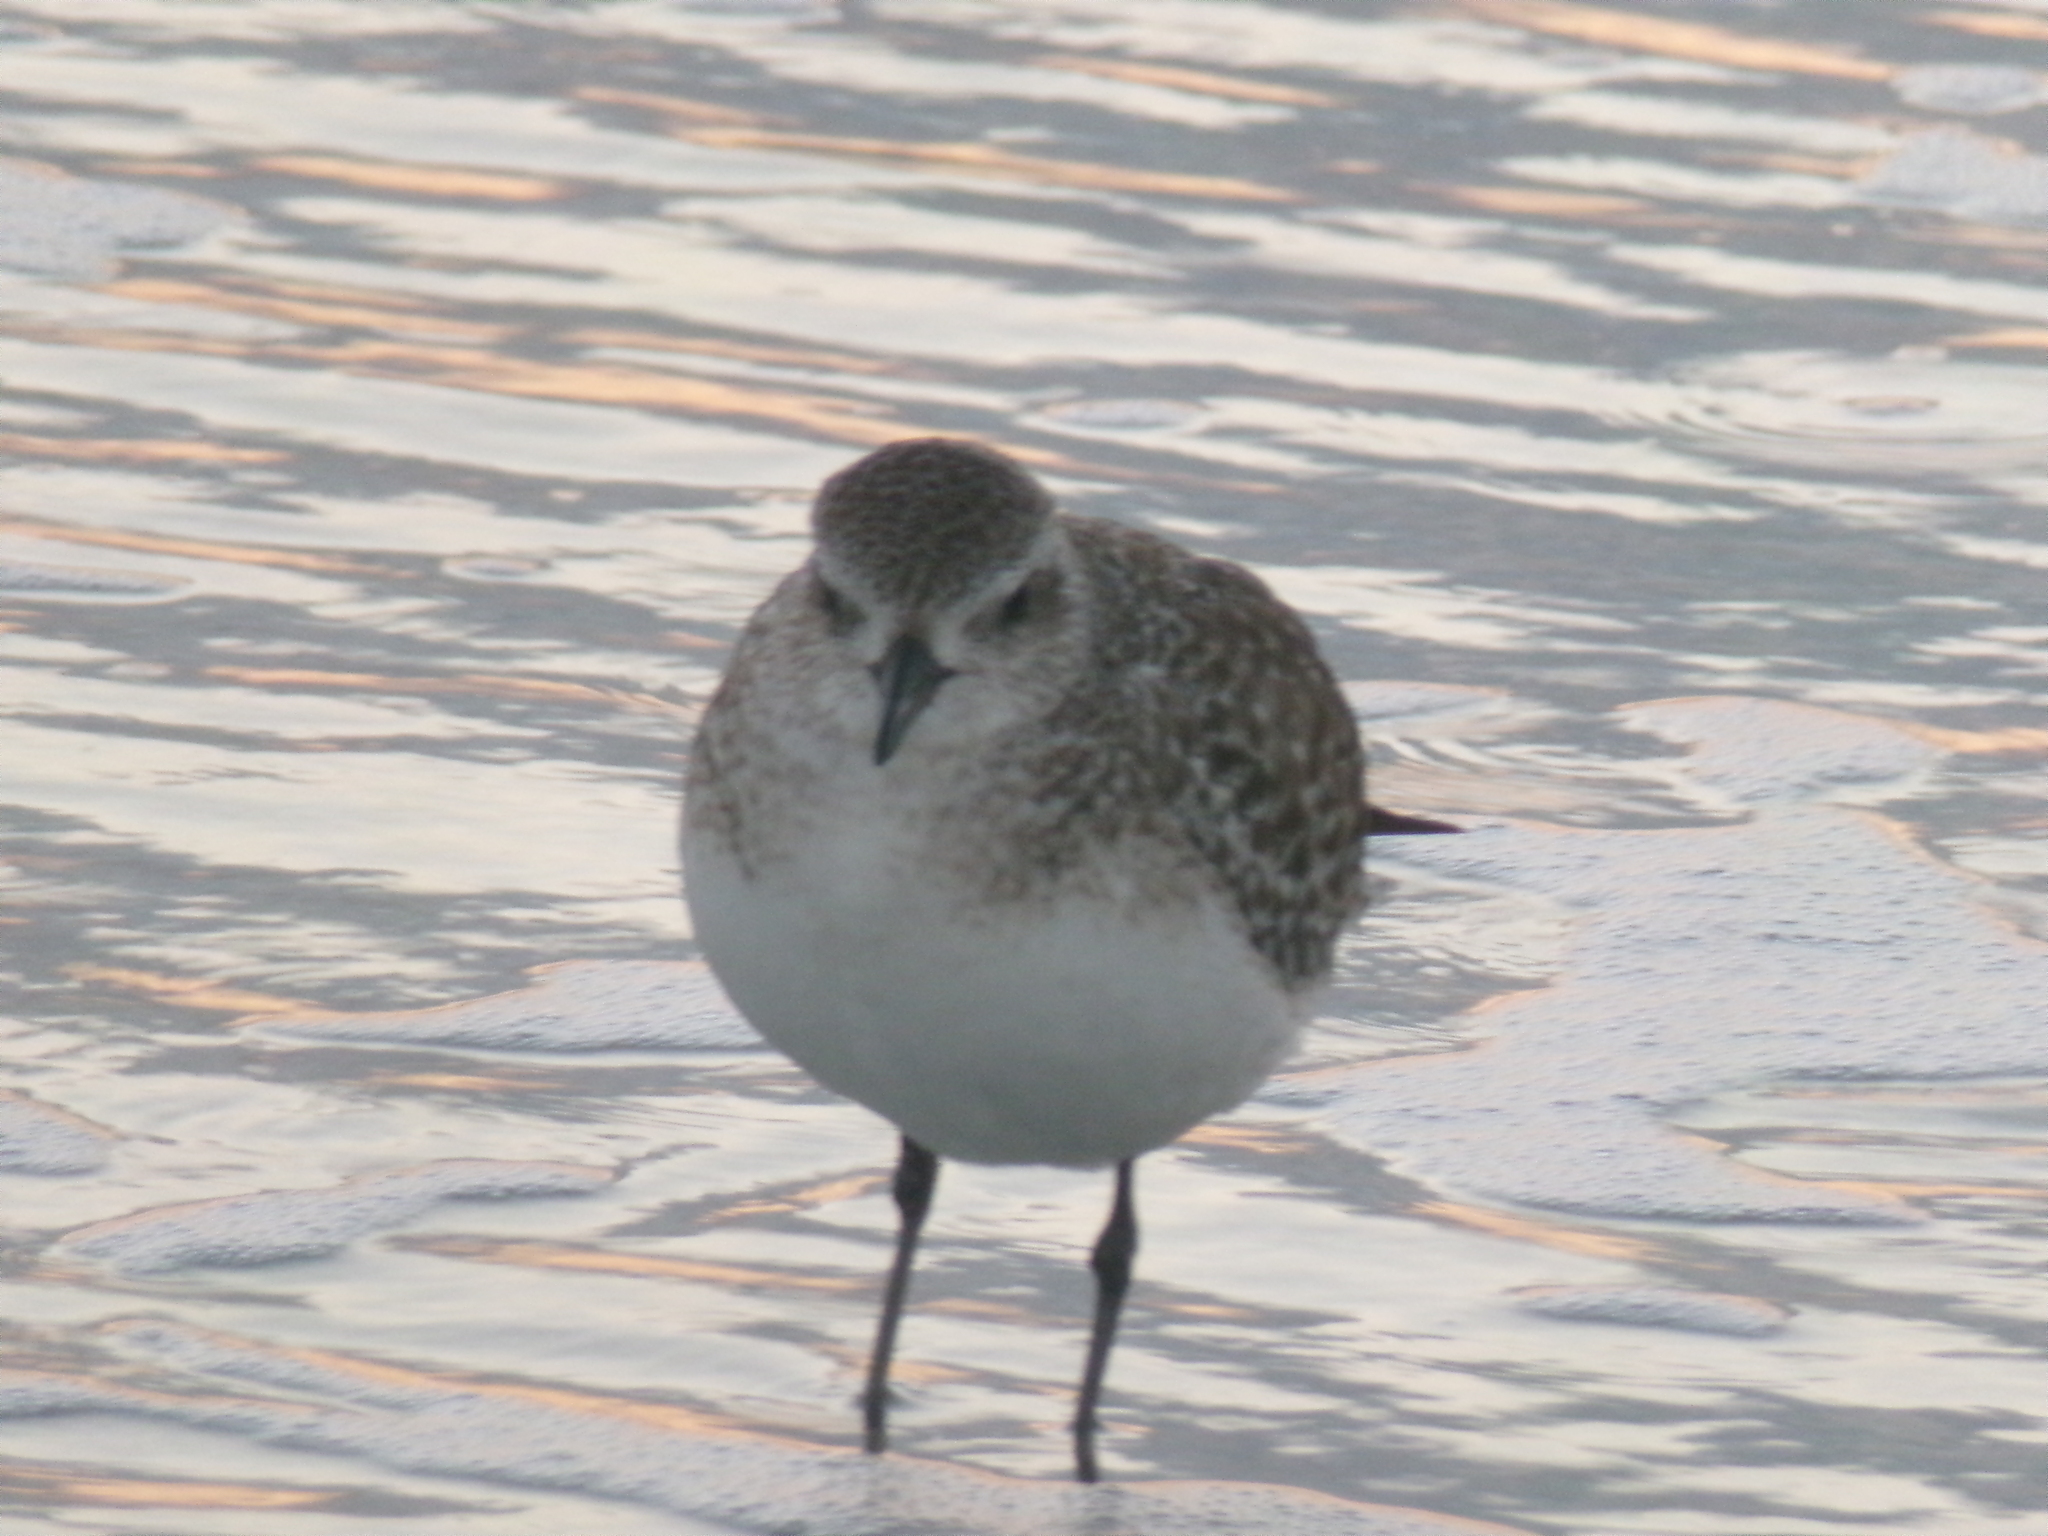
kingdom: Animalia
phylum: Chordata
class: Aves
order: Charadriiformes
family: Charadriidae
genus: Pluvialis
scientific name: Pluvialis squatarola
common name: Grey plover
